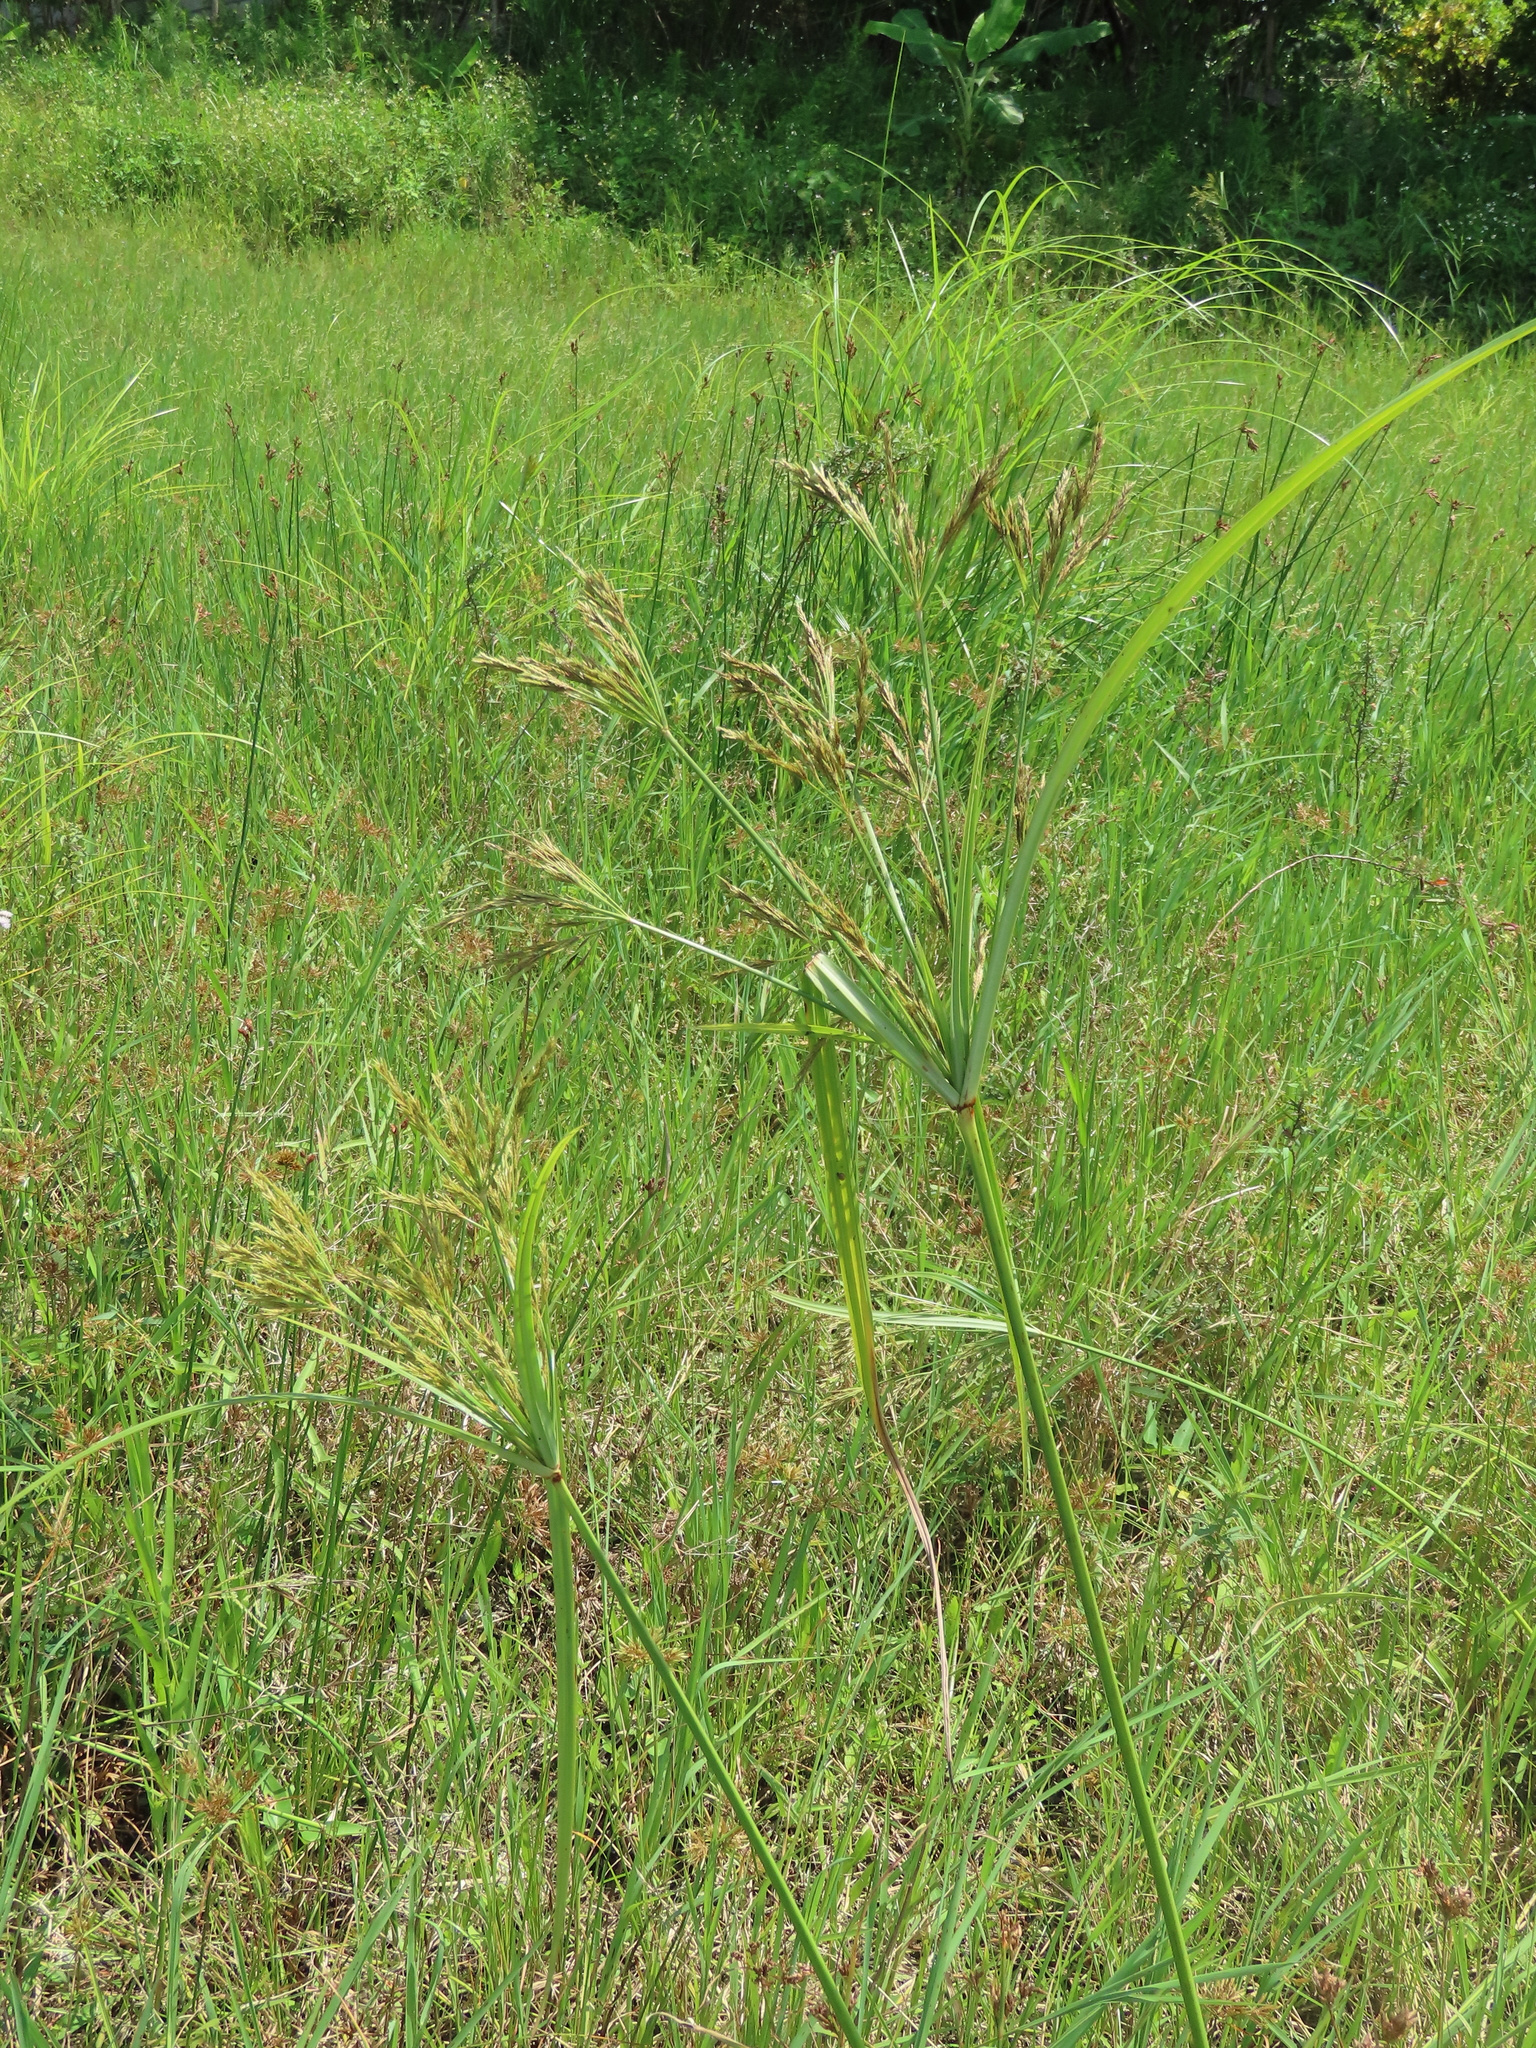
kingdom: Plantae
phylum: Tracheophyta
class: Liliopsida
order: Poales
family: Cyperaceae
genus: Cyperus
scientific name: Cyperus nutans
